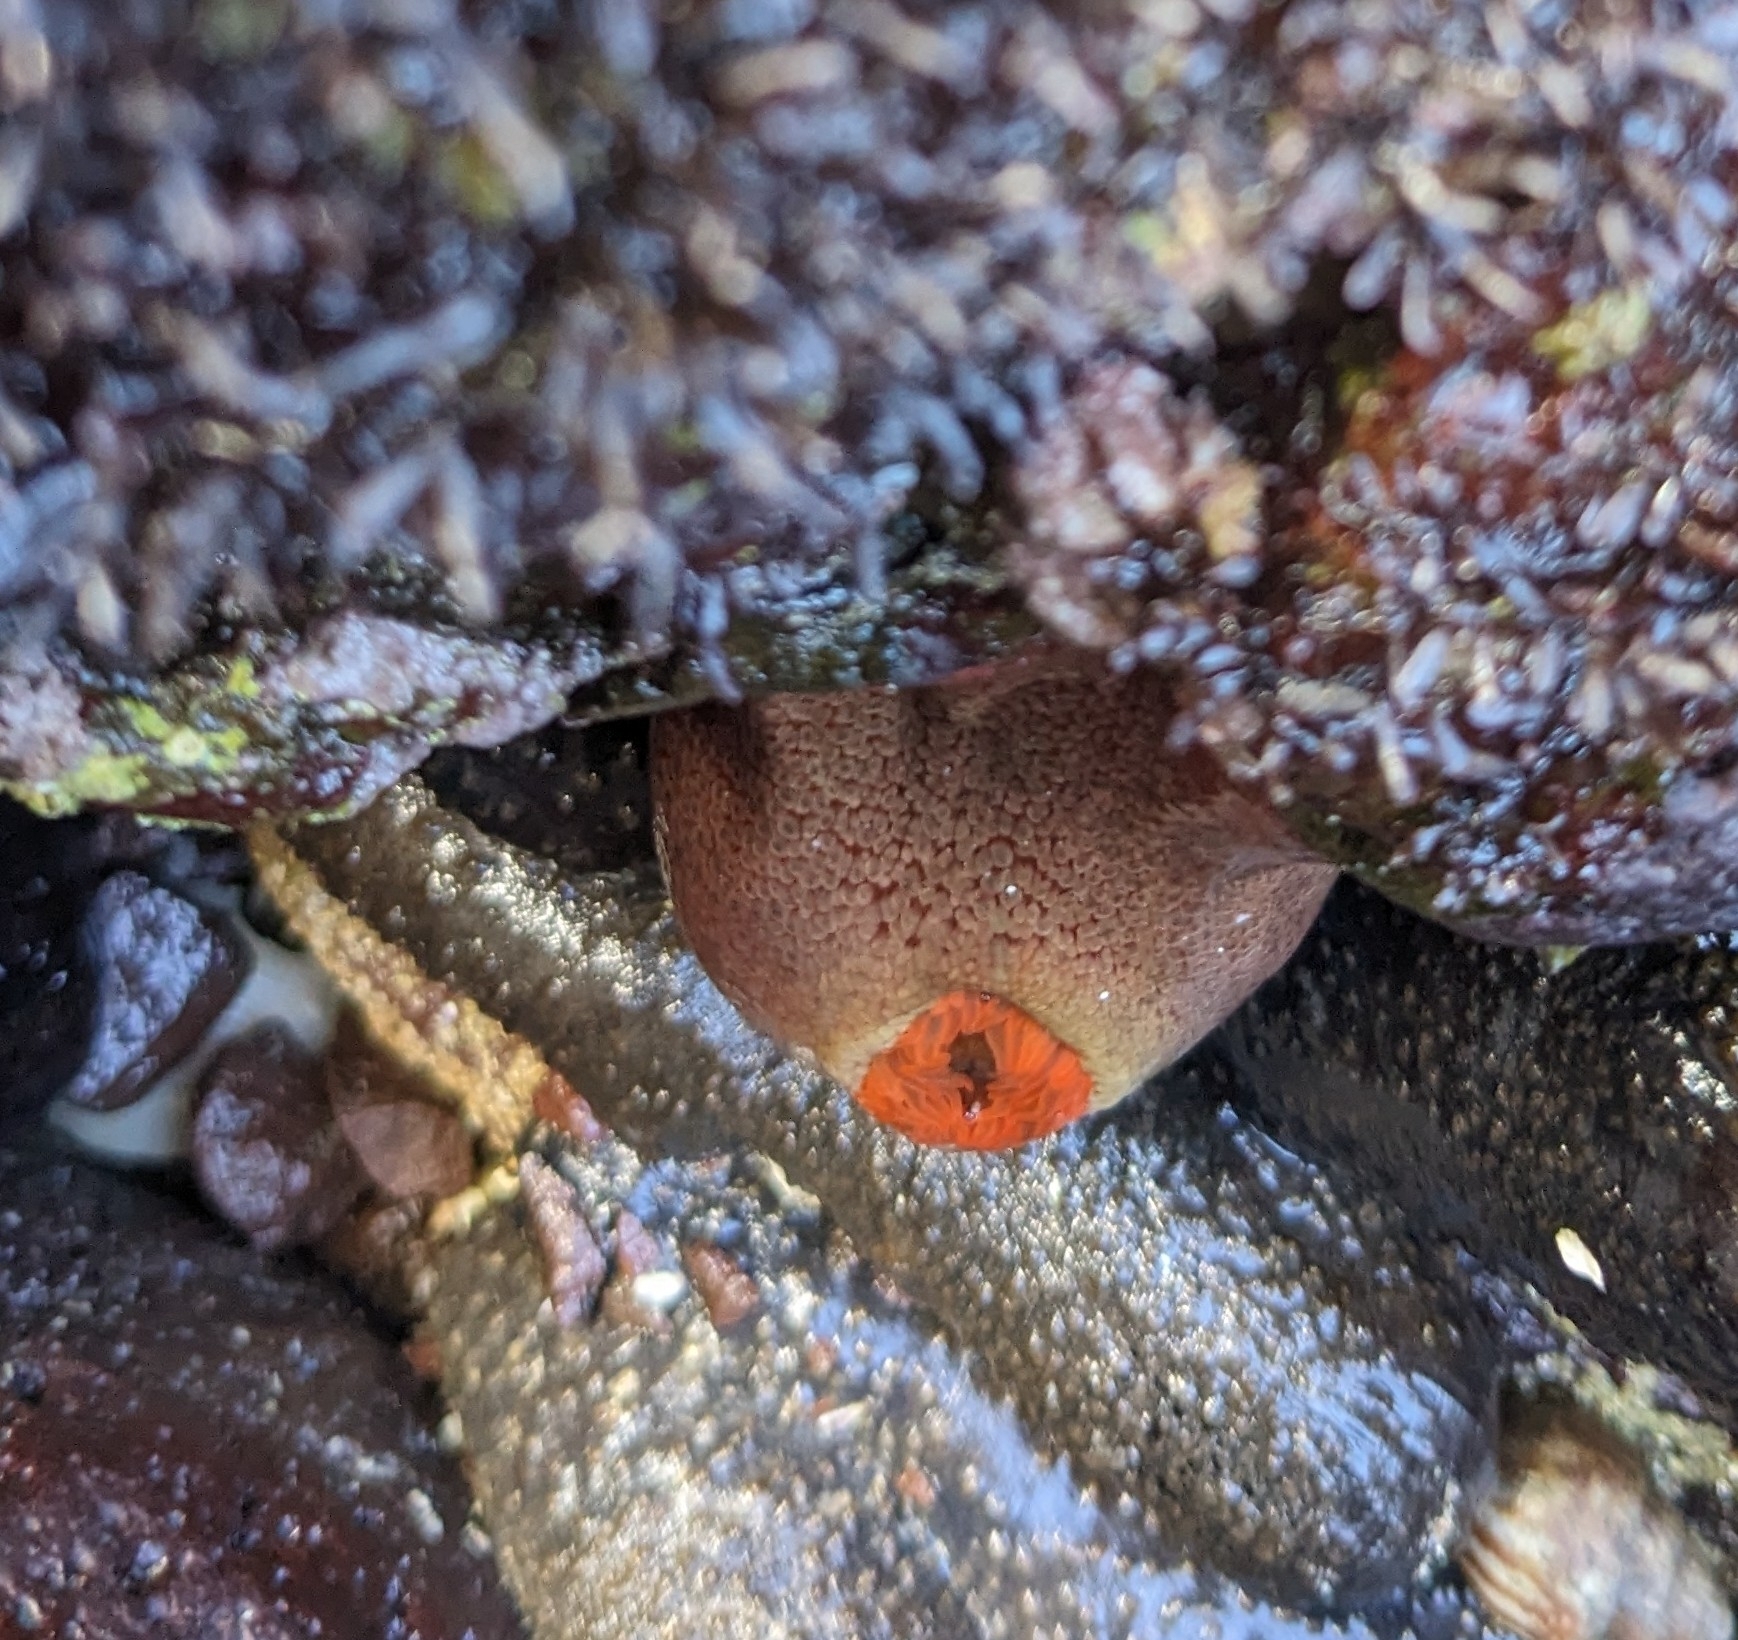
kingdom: Animalia
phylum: Cnidaria
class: Anthozoa
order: Actiniaria
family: Actiniidae
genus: Bunodosoma
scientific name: Bunodosoma californicum
